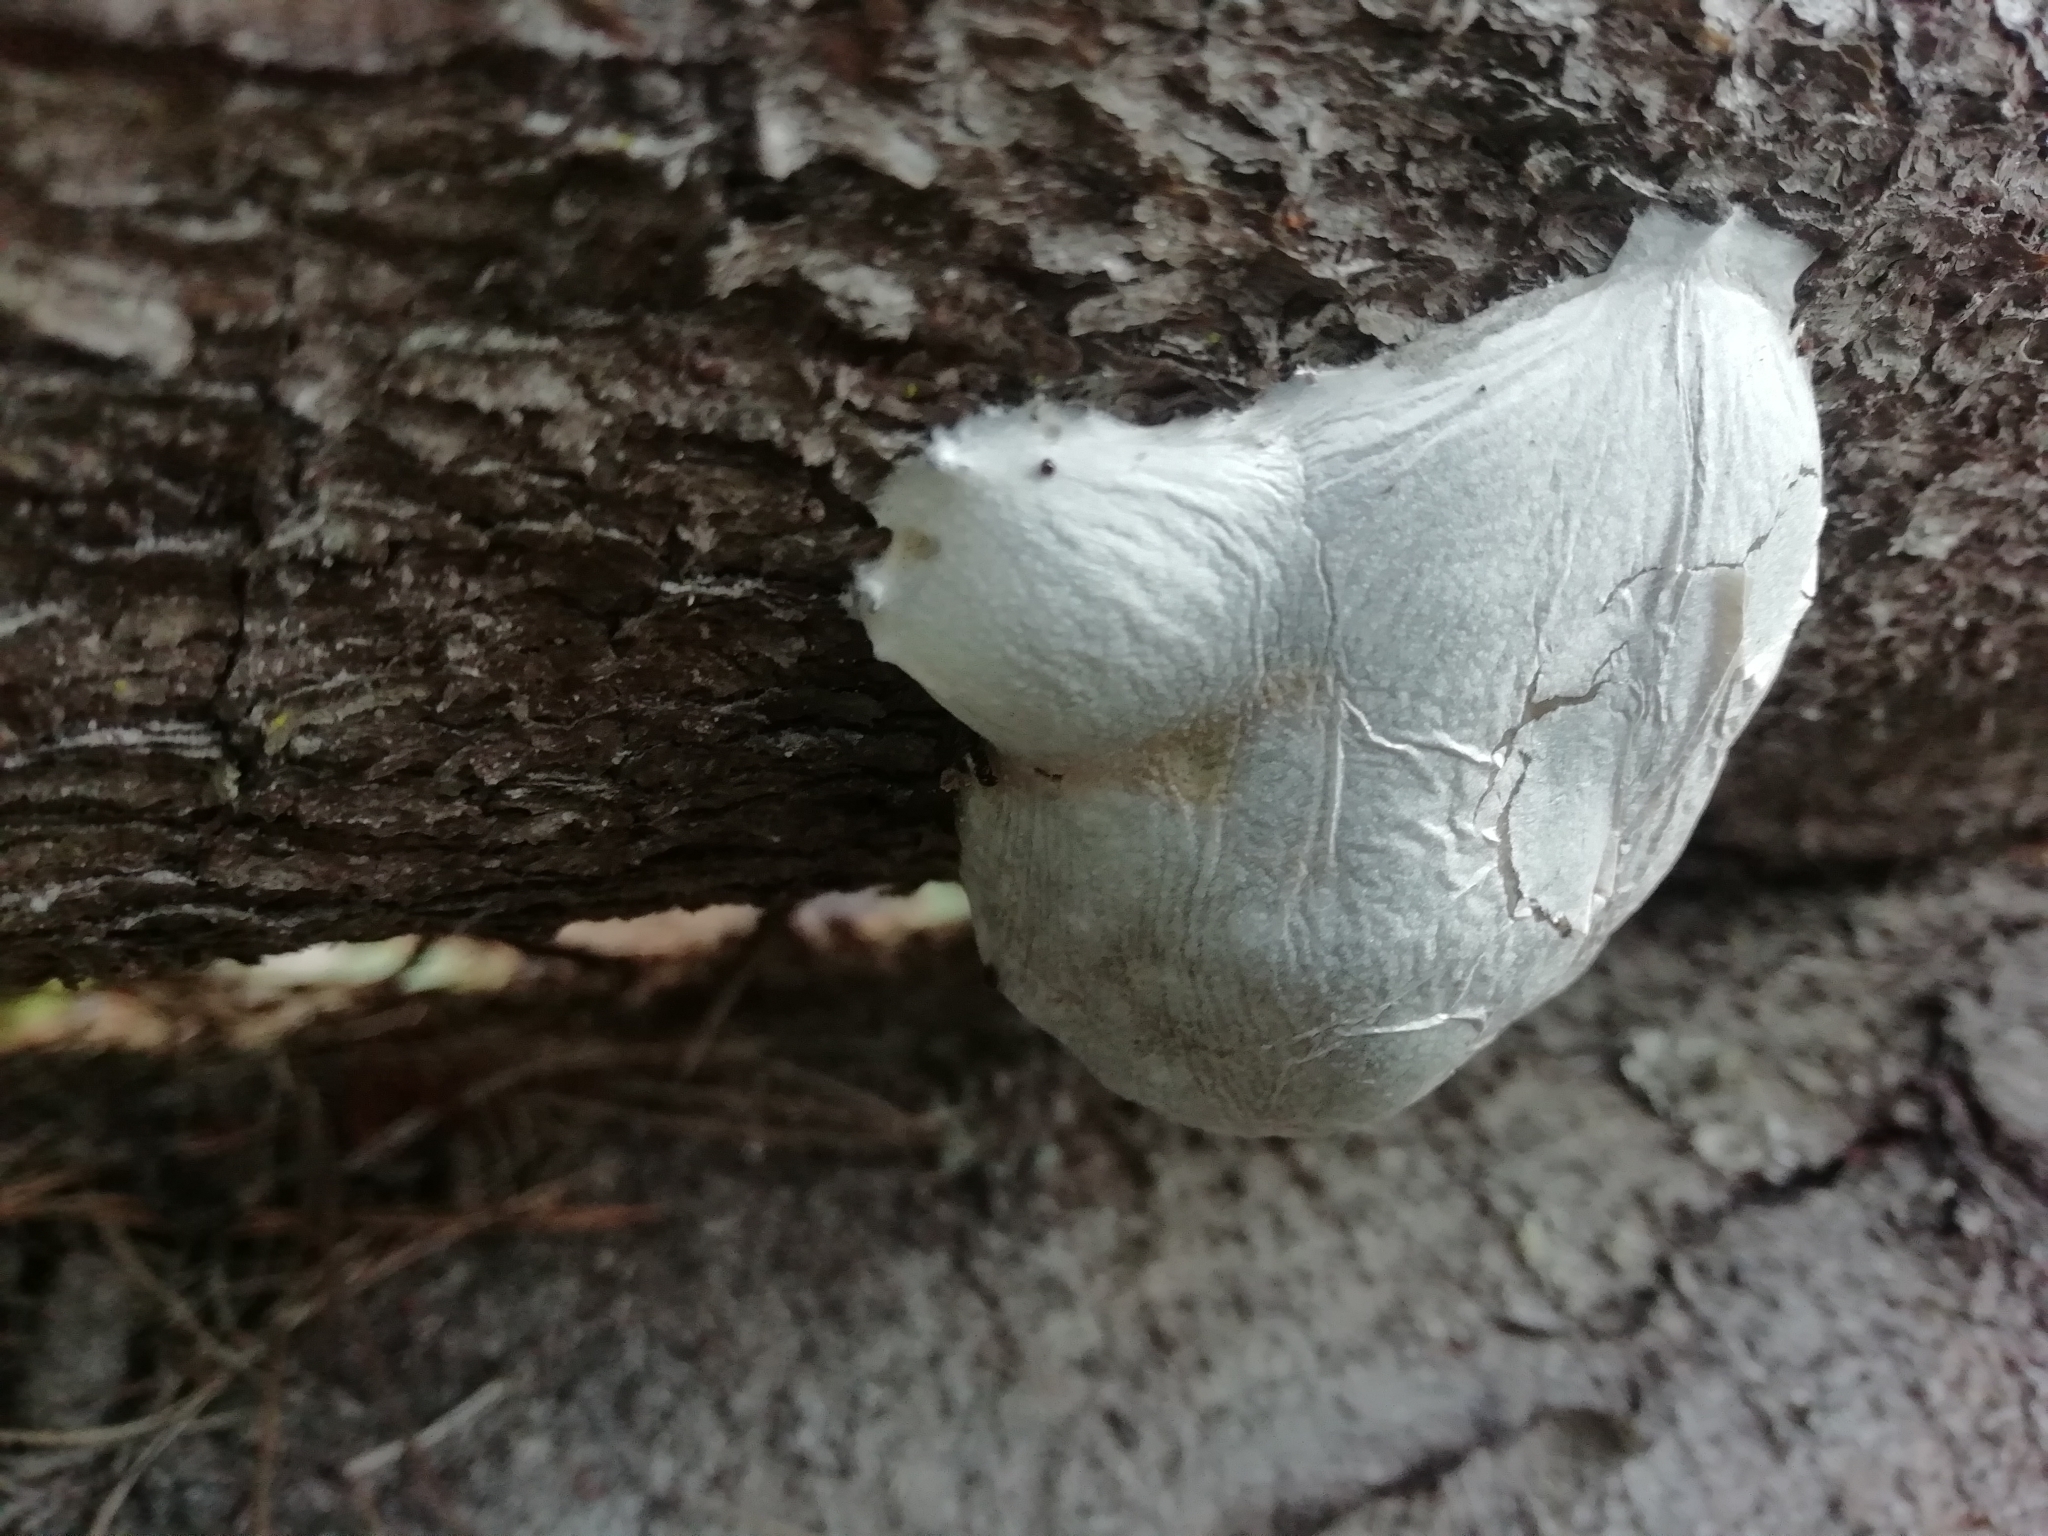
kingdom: Protozoa
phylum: Mycetozoa
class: Myxomycetes
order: Cribrariales
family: Tubiferaceae
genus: Reticularia
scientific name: Reticularia lycoperdon
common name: False puffball
